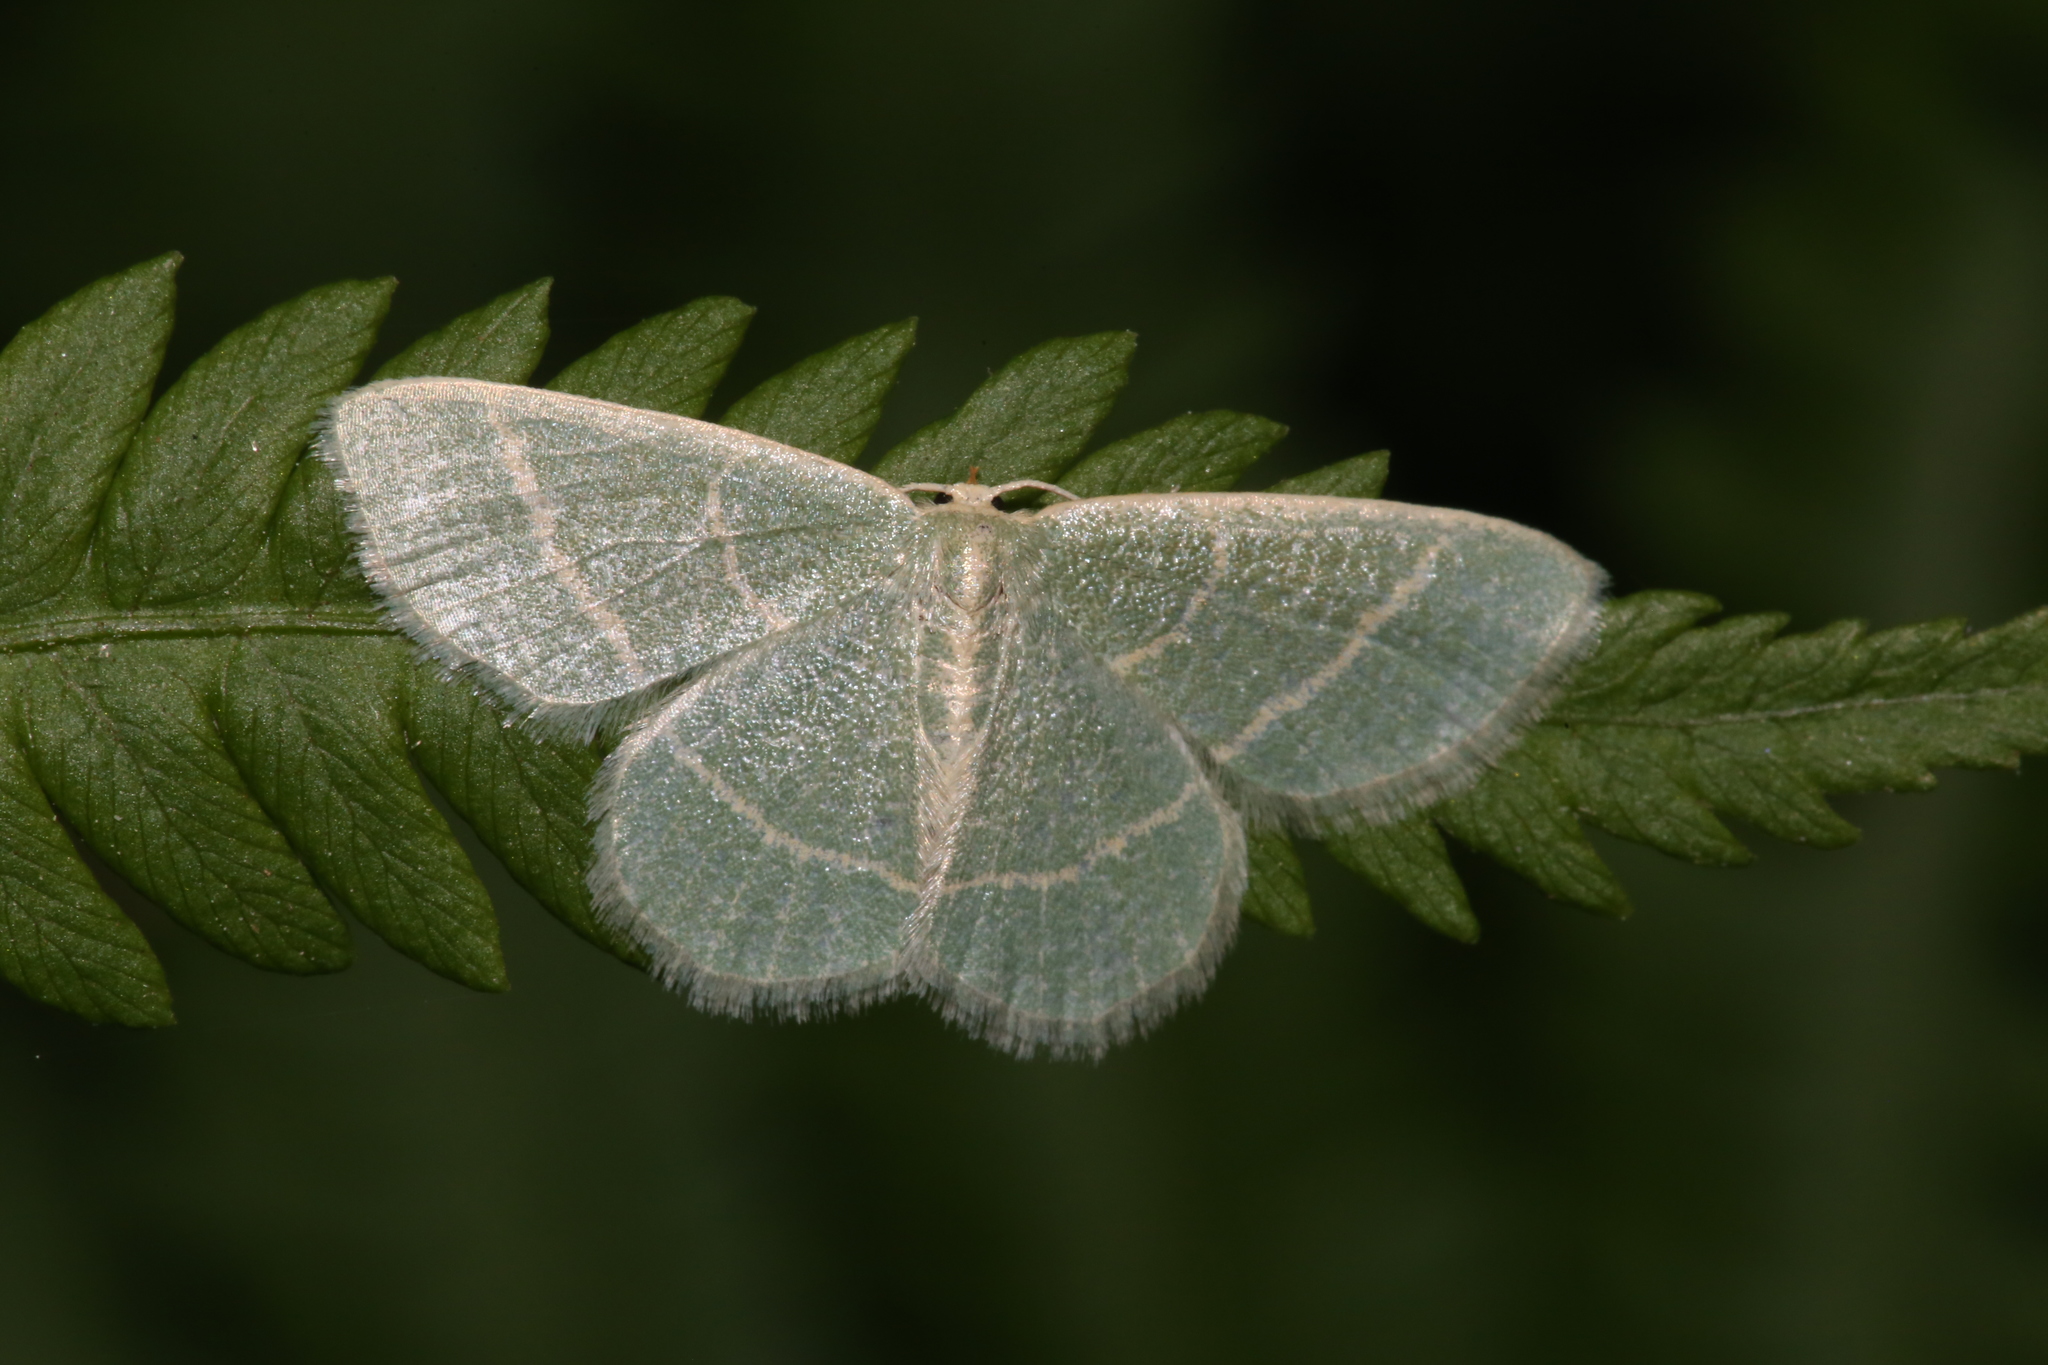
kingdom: Animalia
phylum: Arthropoda
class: Insecta
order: Lepidoptera
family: Geometridae
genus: Chlorochlamys
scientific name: Chlorochlamys chloroleucaria
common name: Blackberry looper
